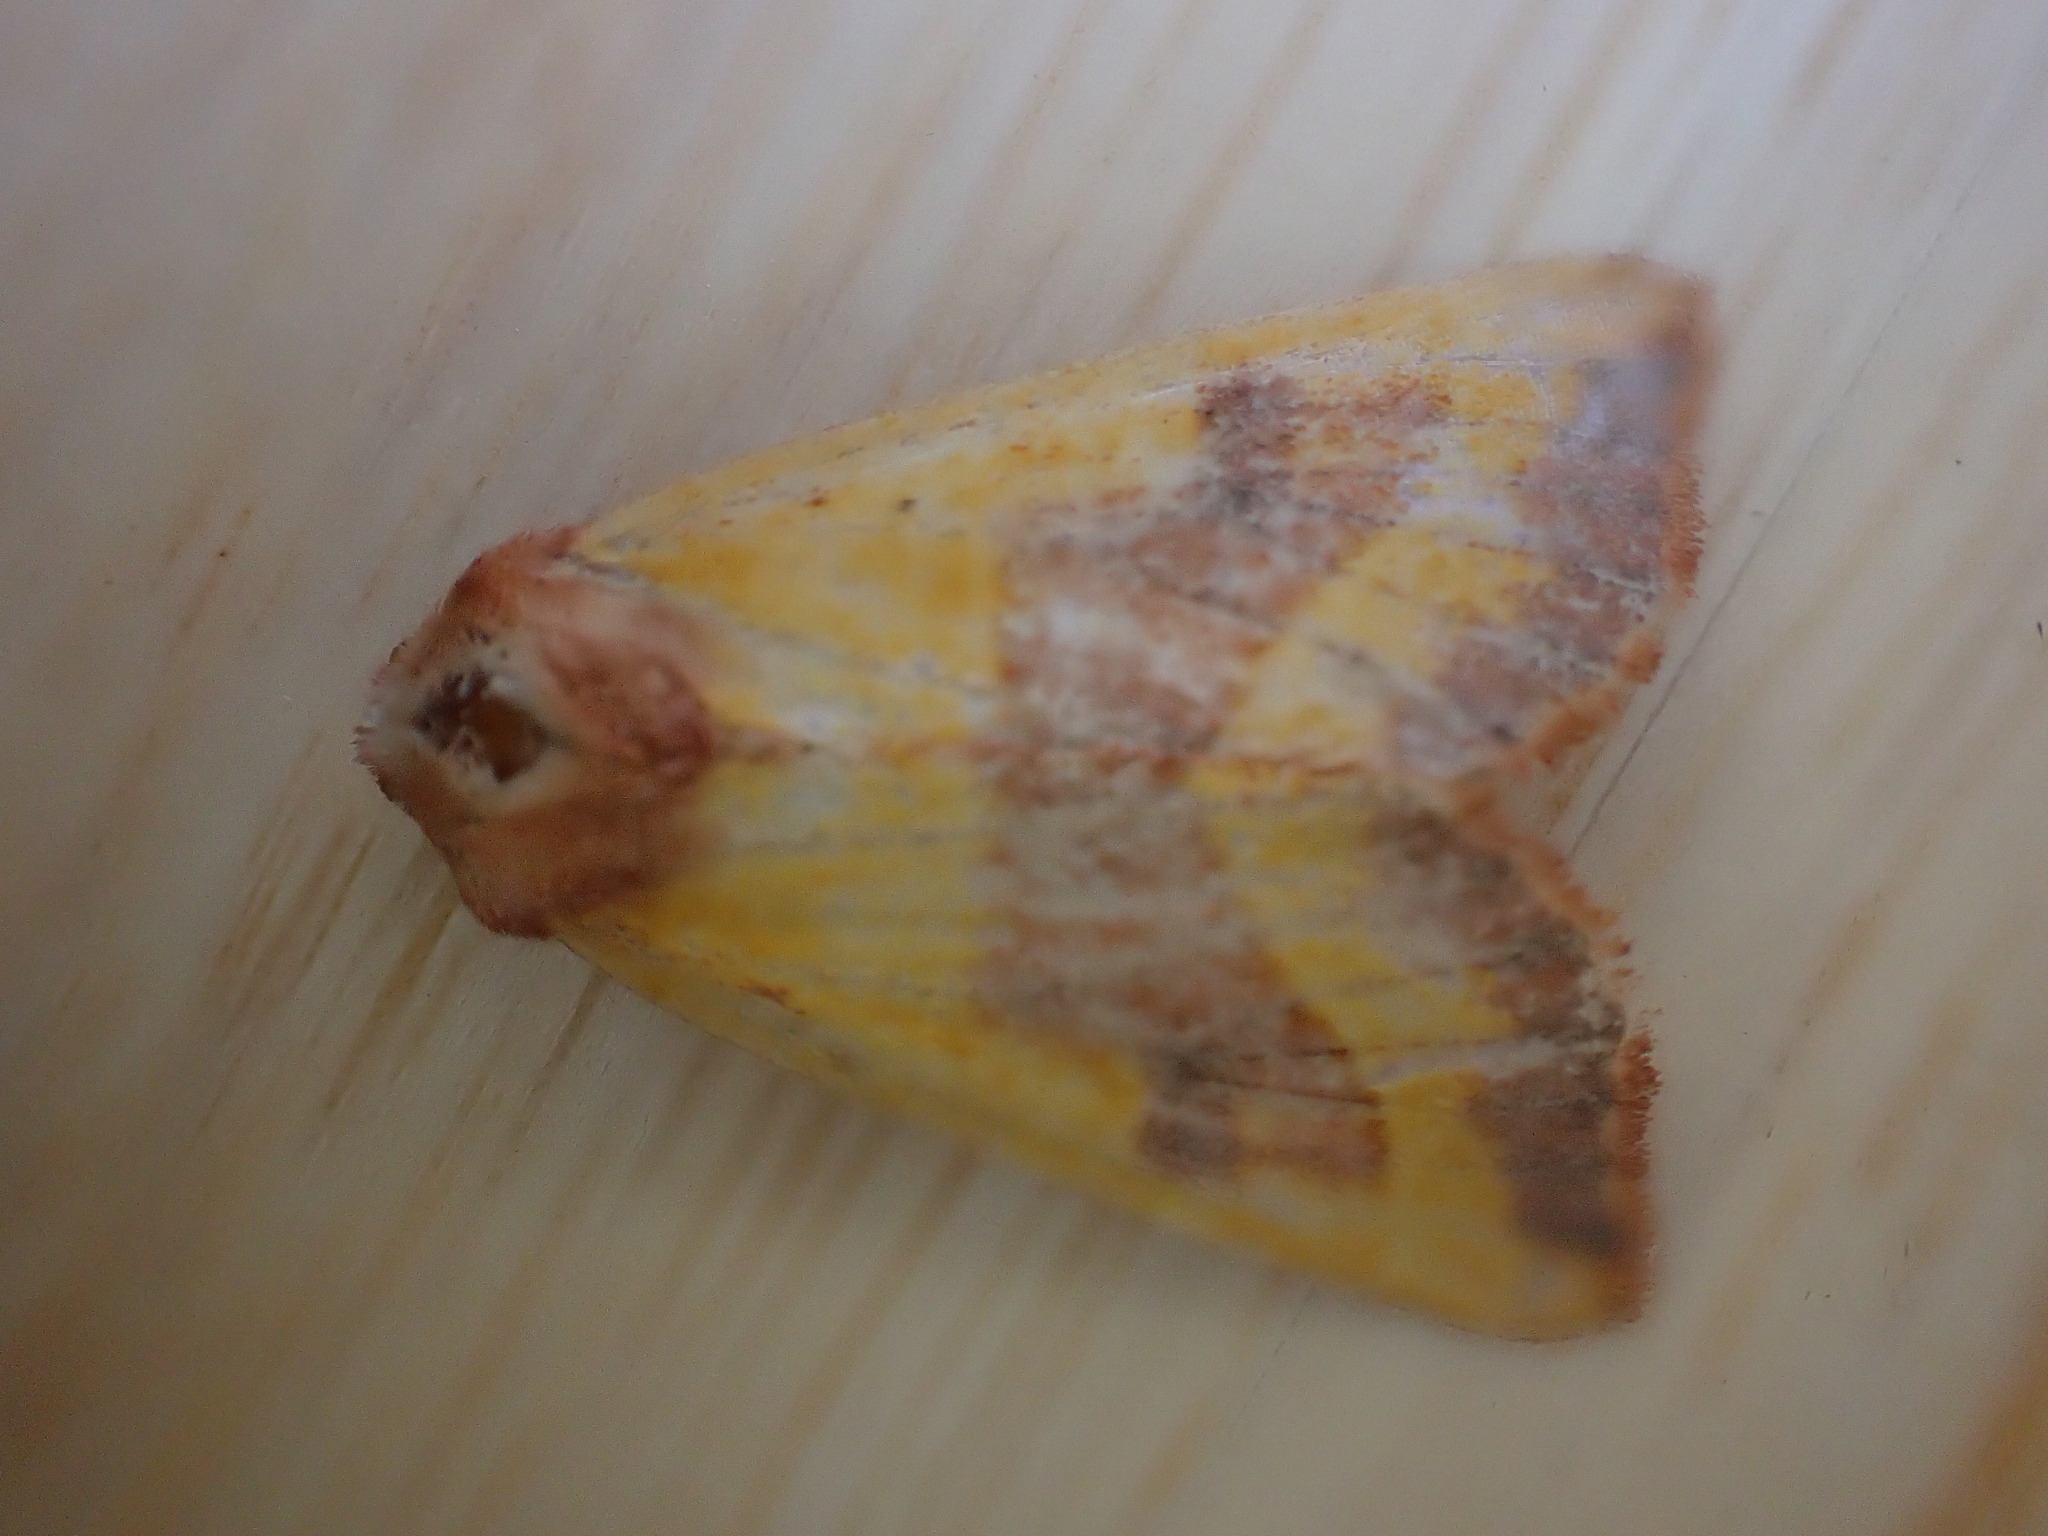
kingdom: Animalia
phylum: Arthropoda
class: Insecta
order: Lepidoptera
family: Noctuidae
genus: Atethmia
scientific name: Atethmia centrago
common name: Centre-barred sallow
